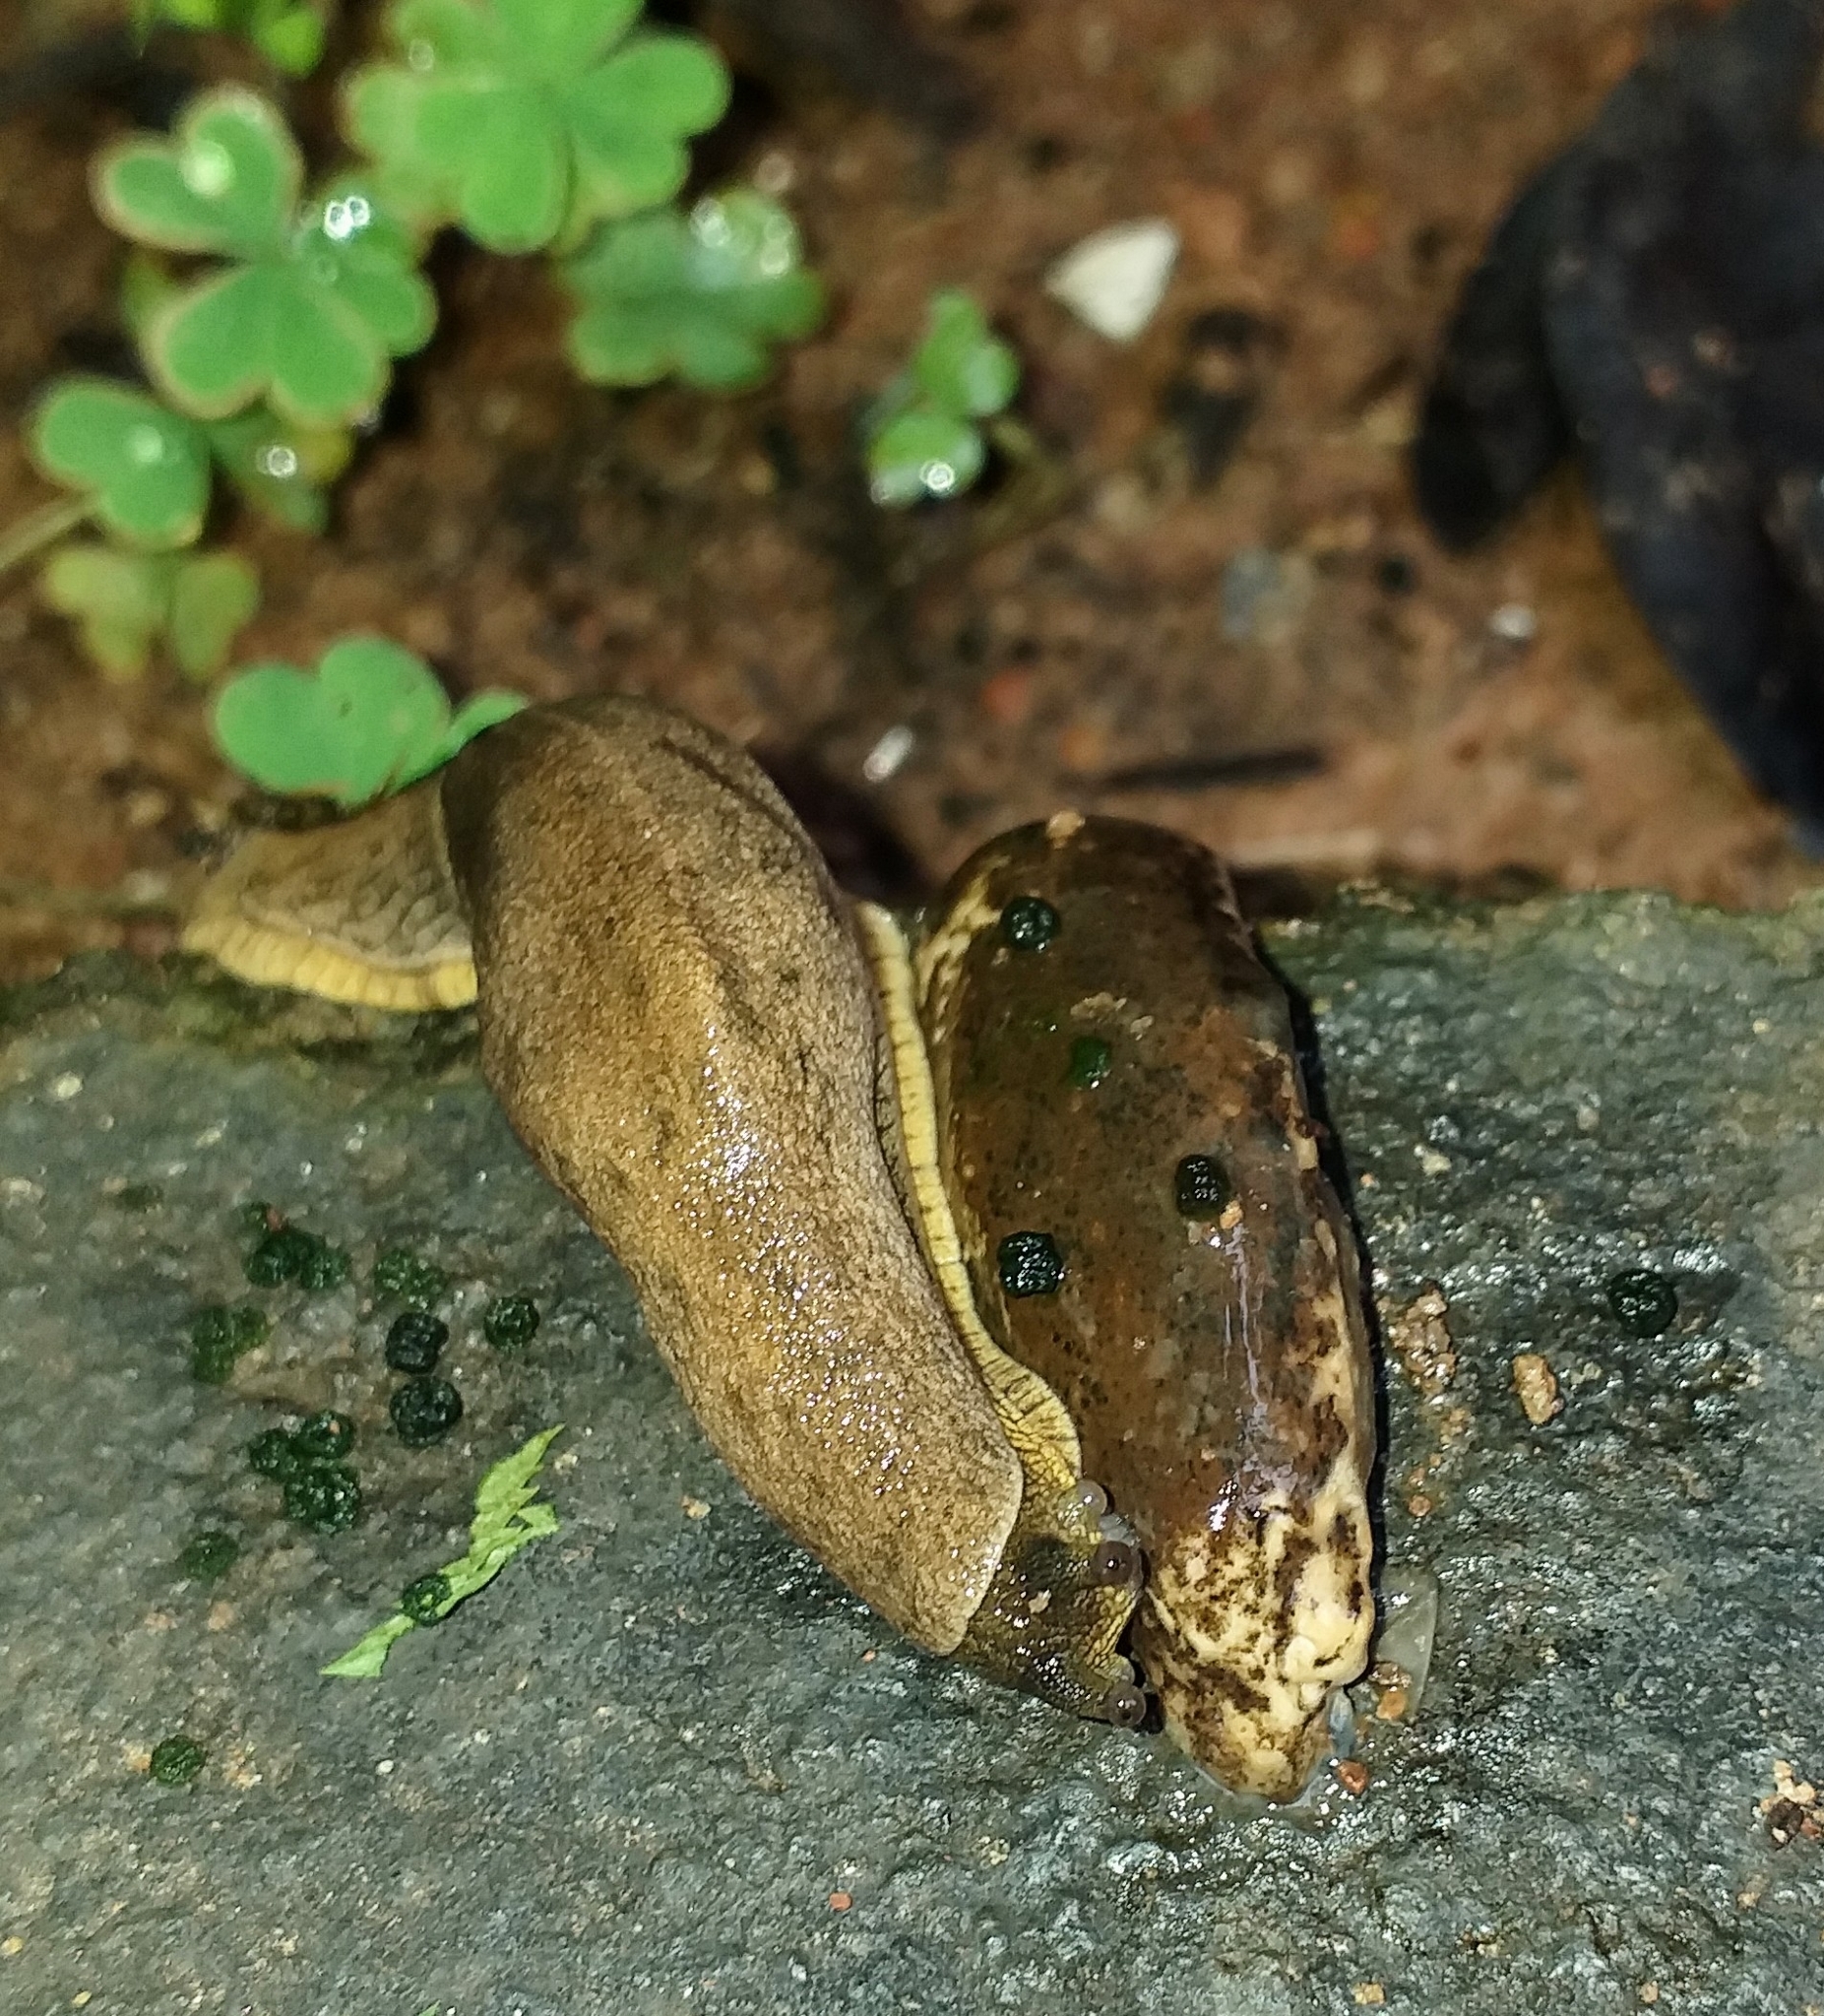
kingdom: Animalia
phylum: Mollusca
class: Gastropoda
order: Stylommatophora
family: Ariophantidae
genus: Mariaella
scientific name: Mariaella dussumieri
